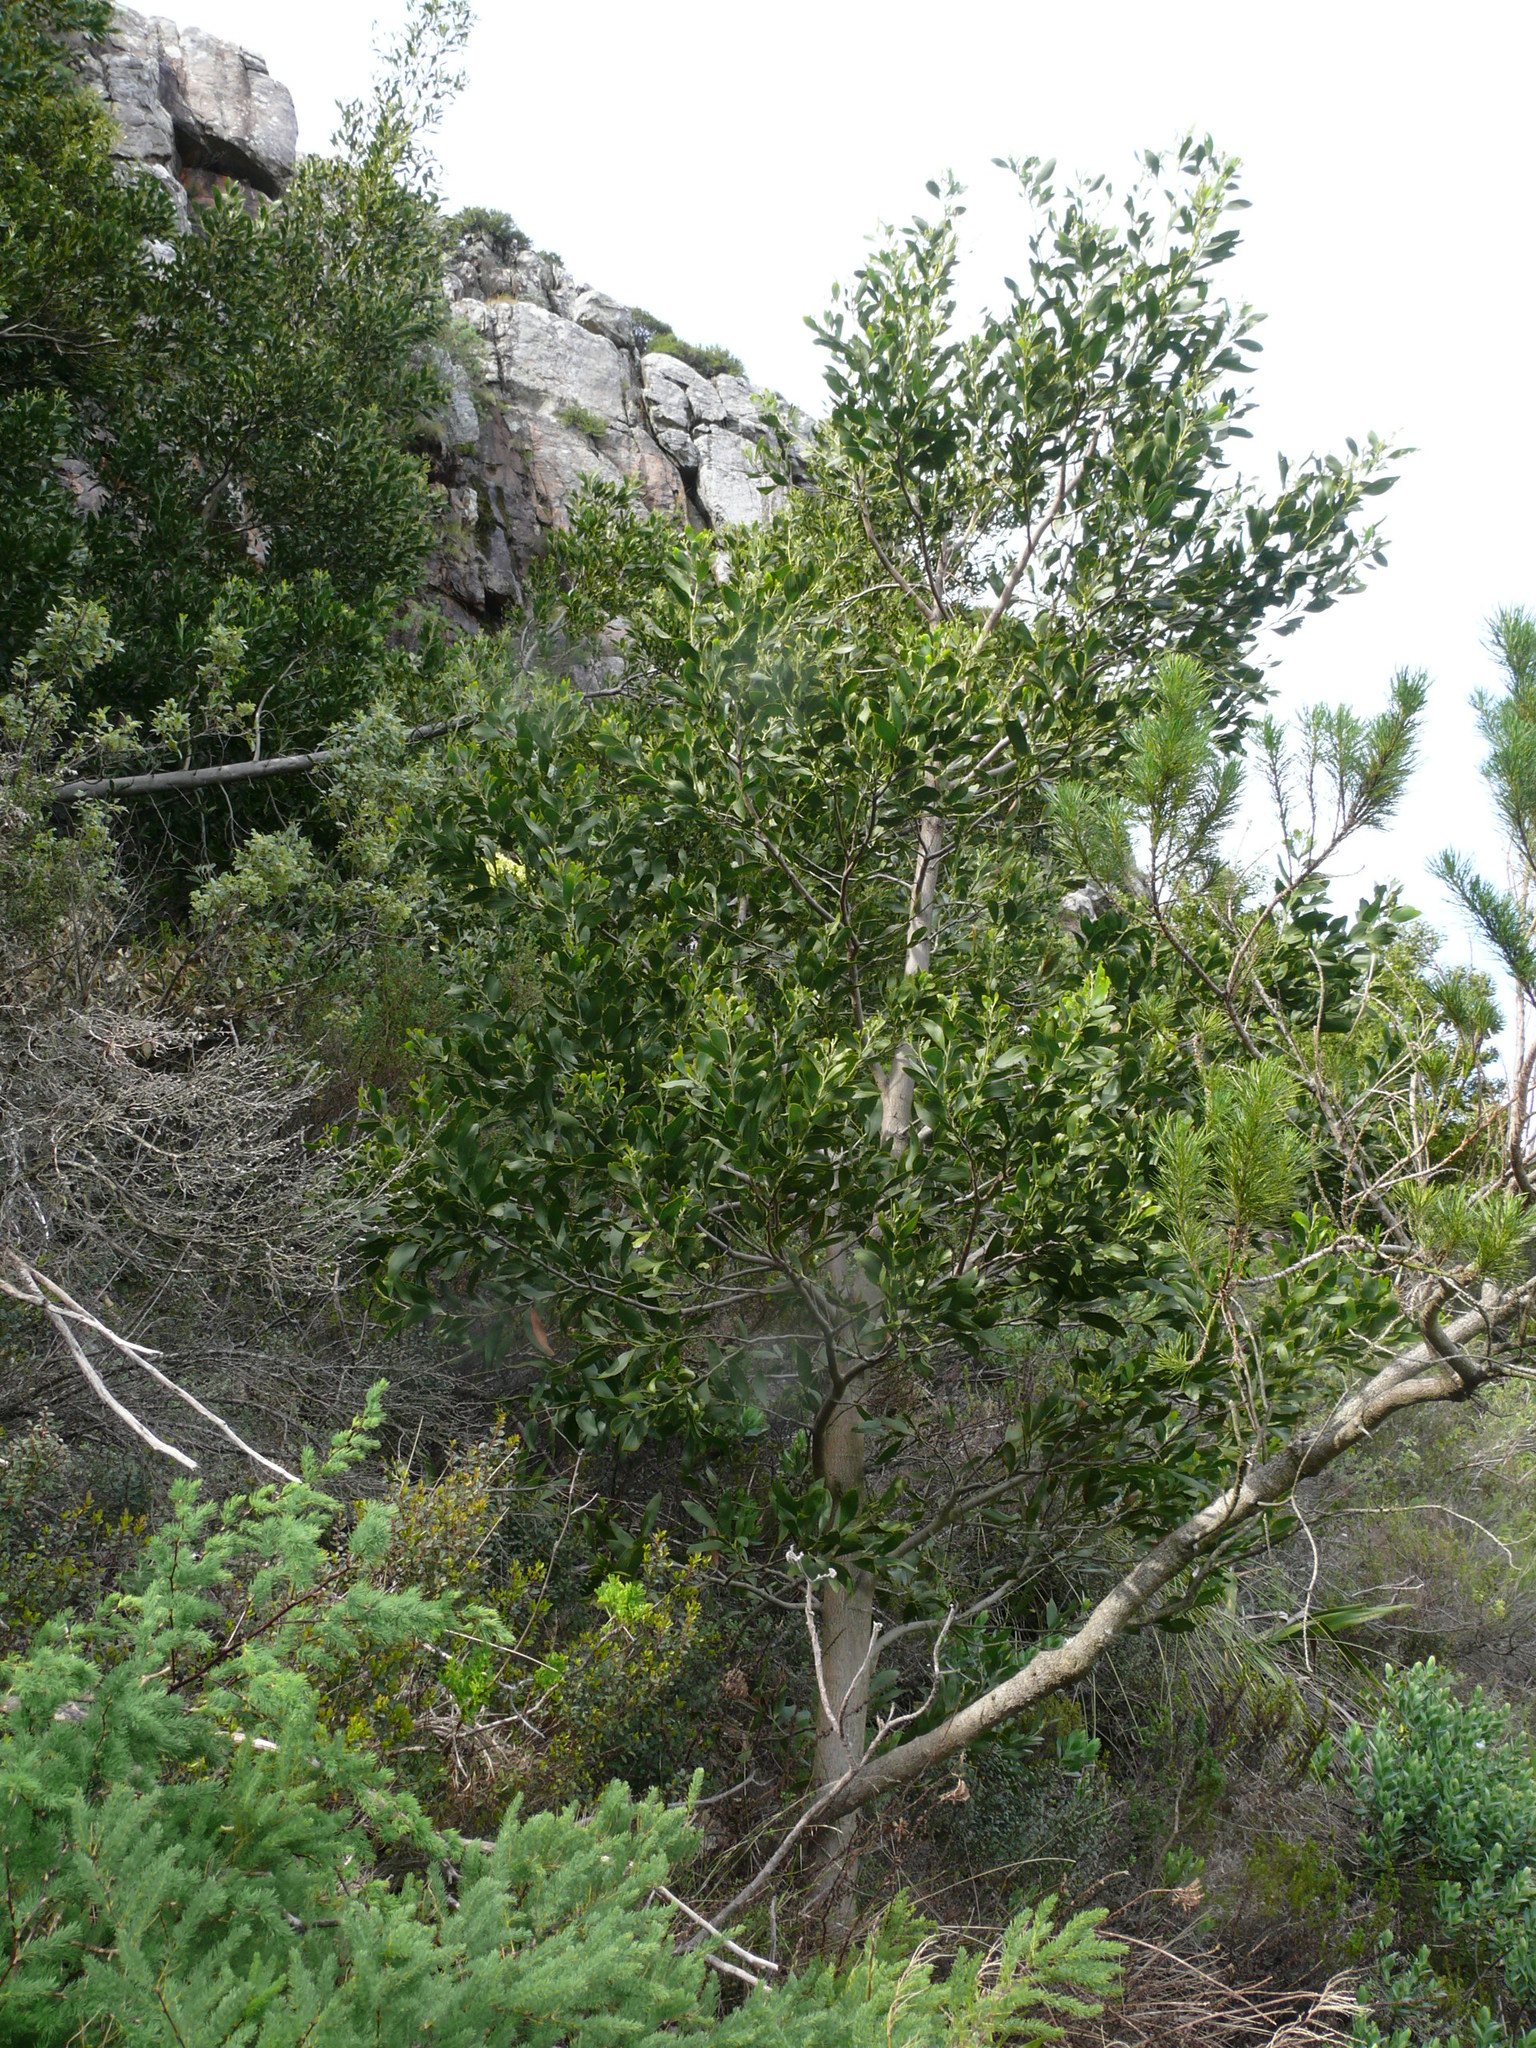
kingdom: Plantae
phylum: Tracheophyta
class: Magnoliopsida
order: Fabales
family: Fabaceae
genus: Acacia
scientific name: Acacia melanoxylon
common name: Blackwood
